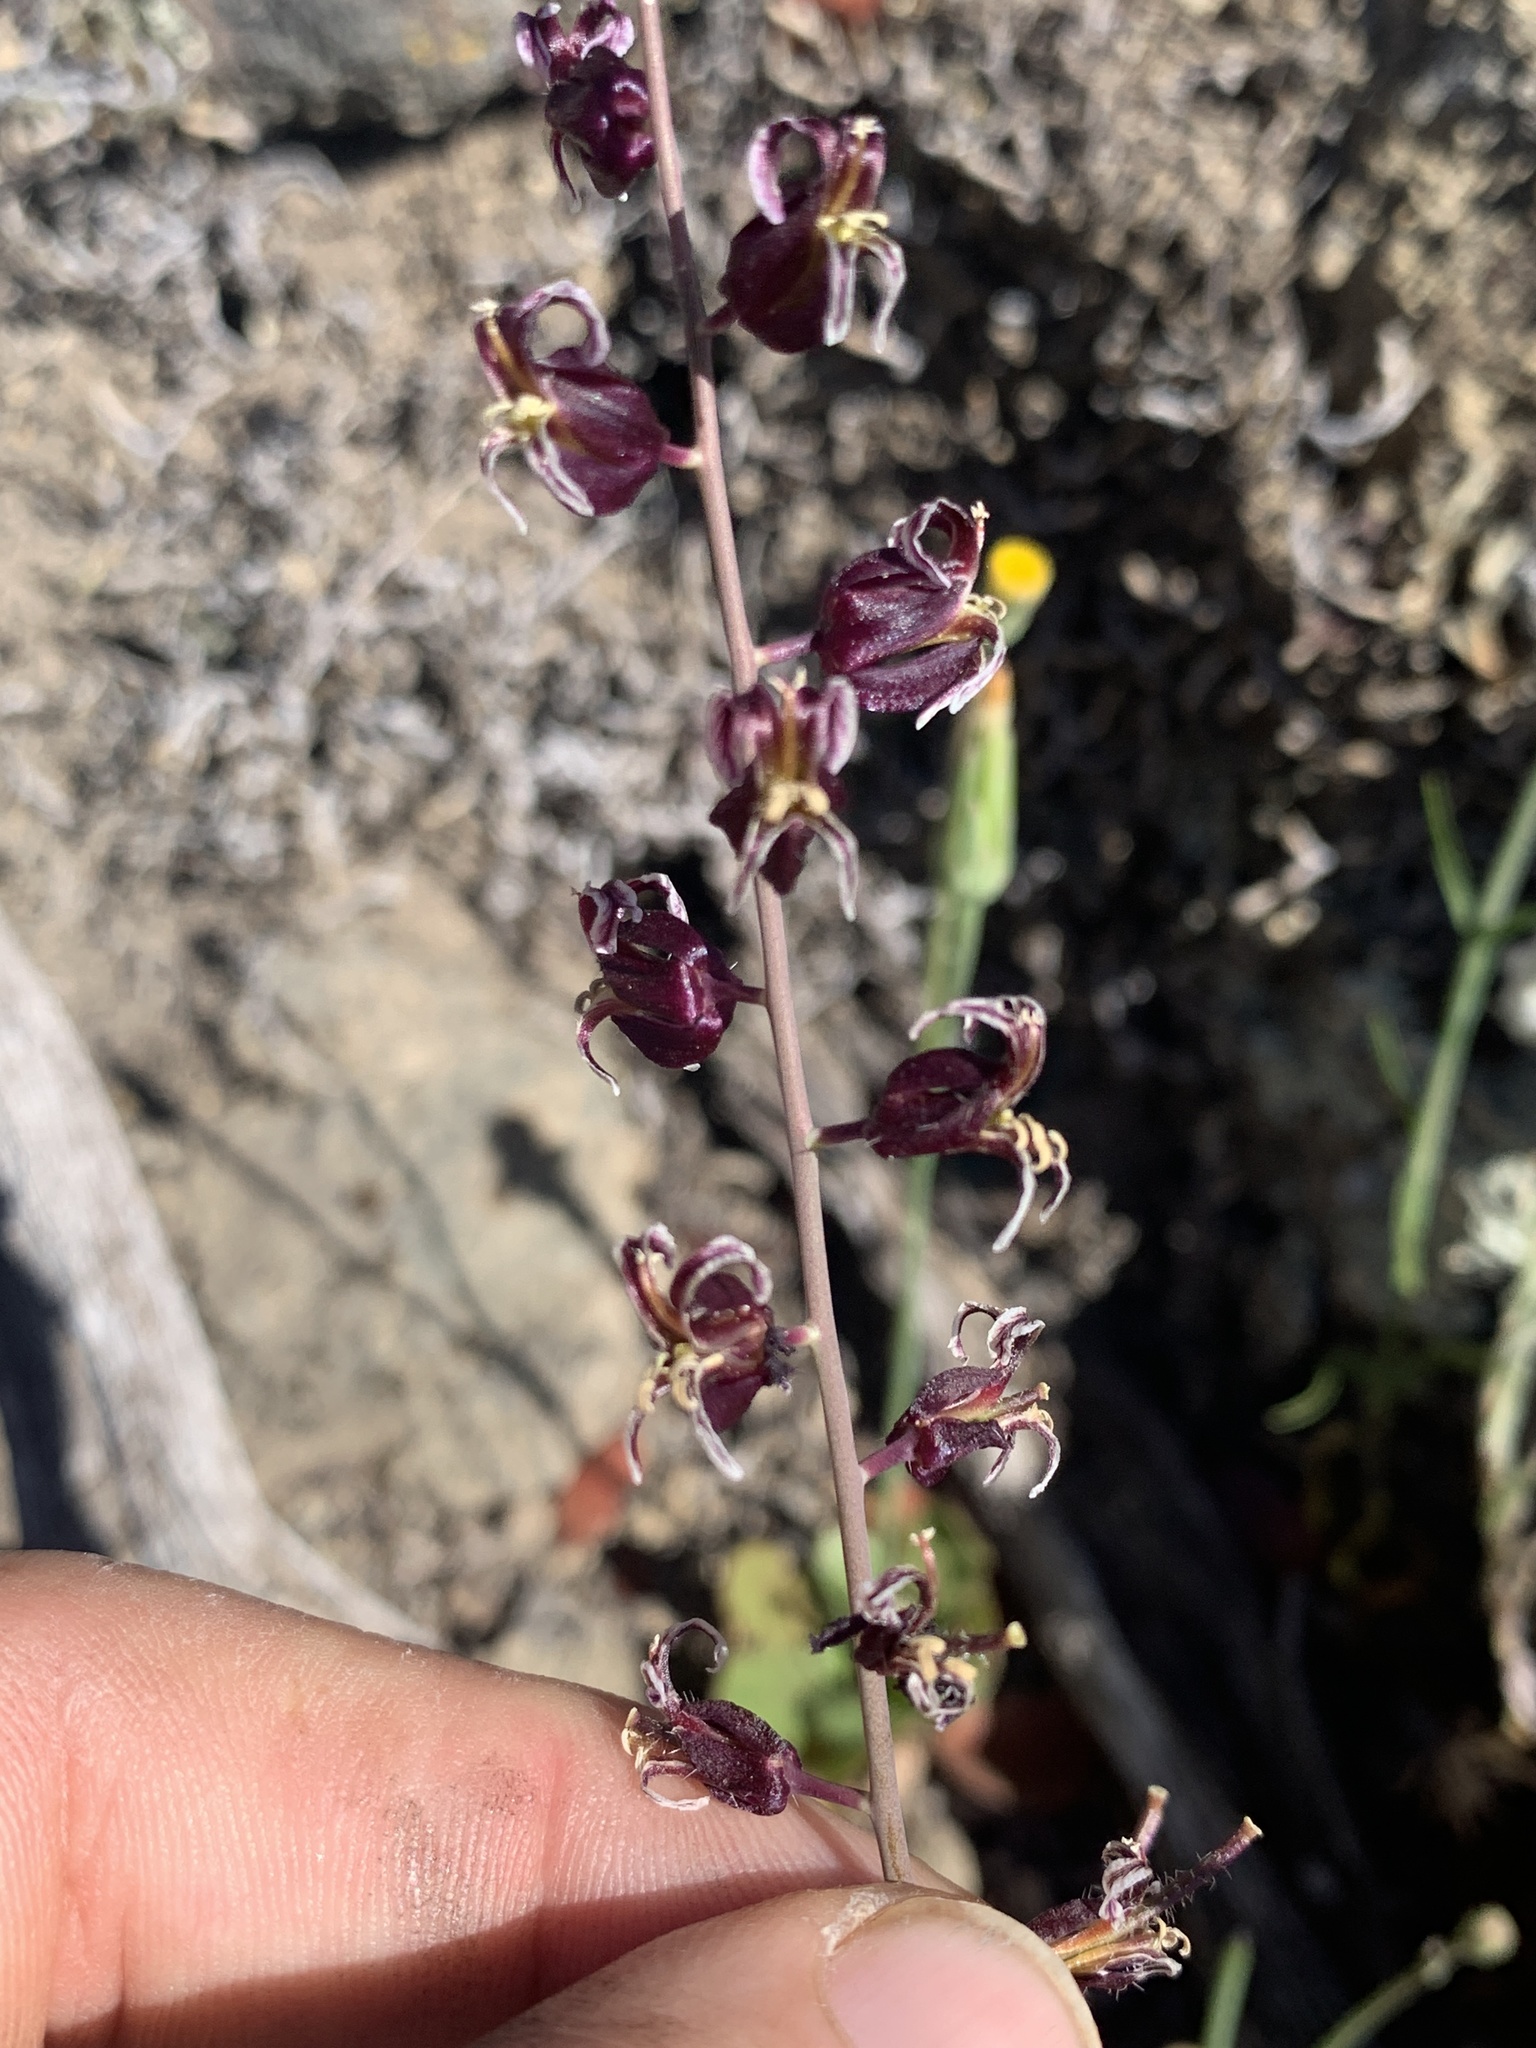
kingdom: Plantae
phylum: Tracheophyta
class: Magnoliopsida
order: Brassicales
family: Brassicaceae
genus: Streptanthus
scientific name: Streptanthus glandulosus
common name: Jewel-flower
